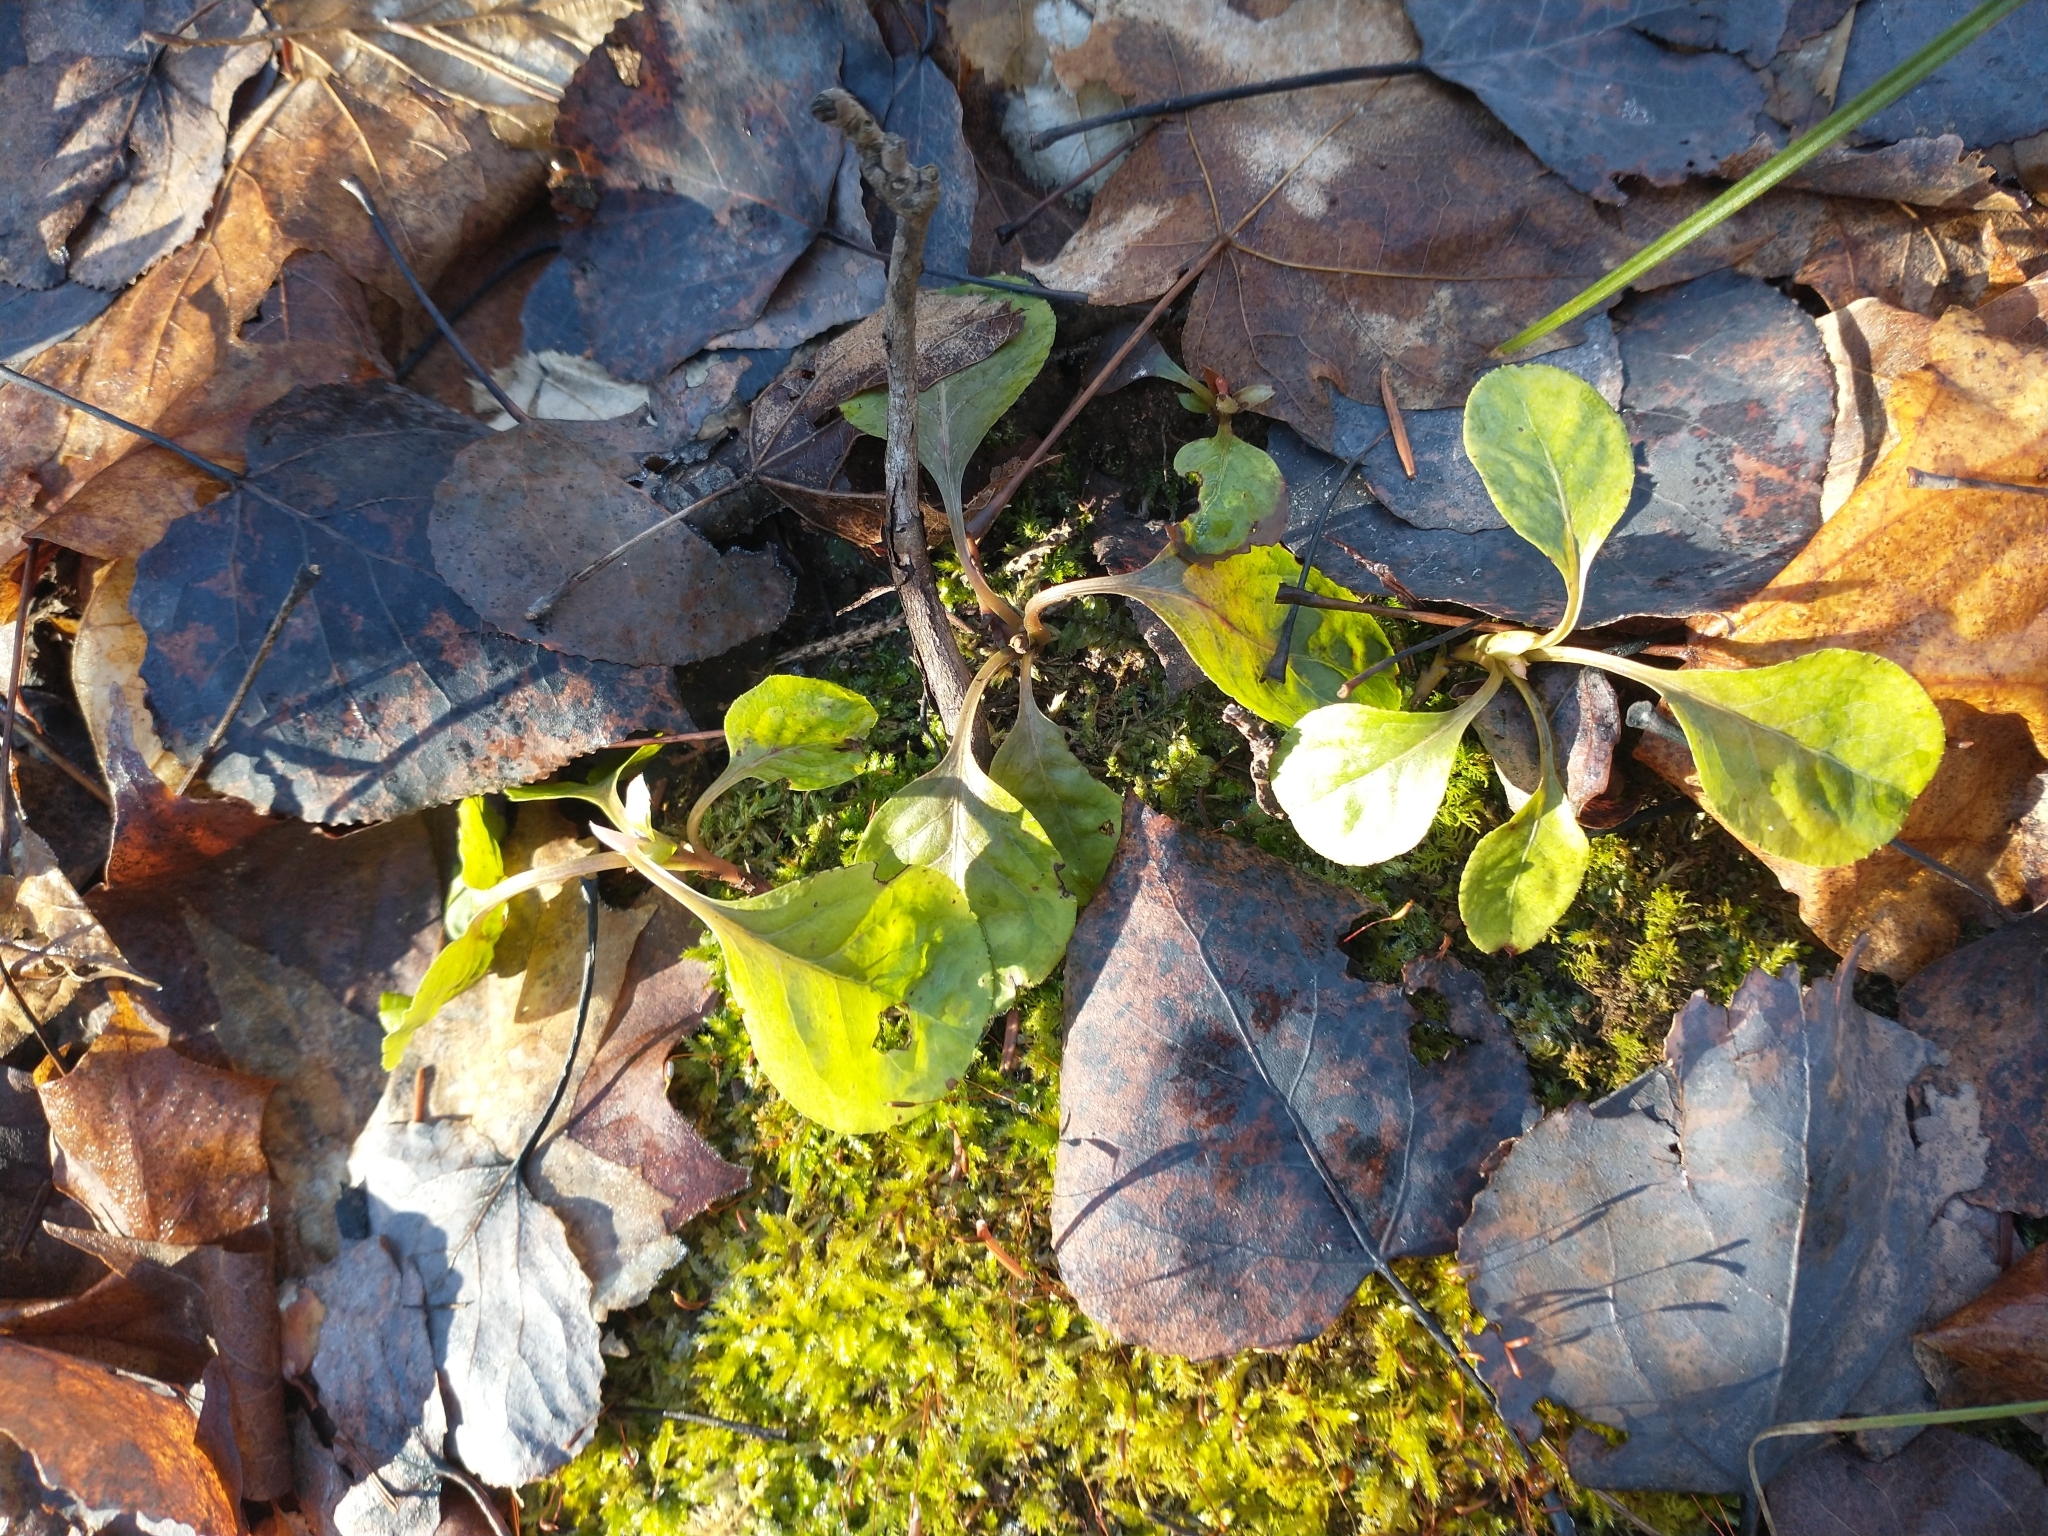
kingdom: Plantae
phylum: Tracheophyta
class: Magnoliopsida
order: Ericales
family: Ericaceae
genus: Pyrola
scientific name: Pyrola elliptica
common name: Shinleaf
